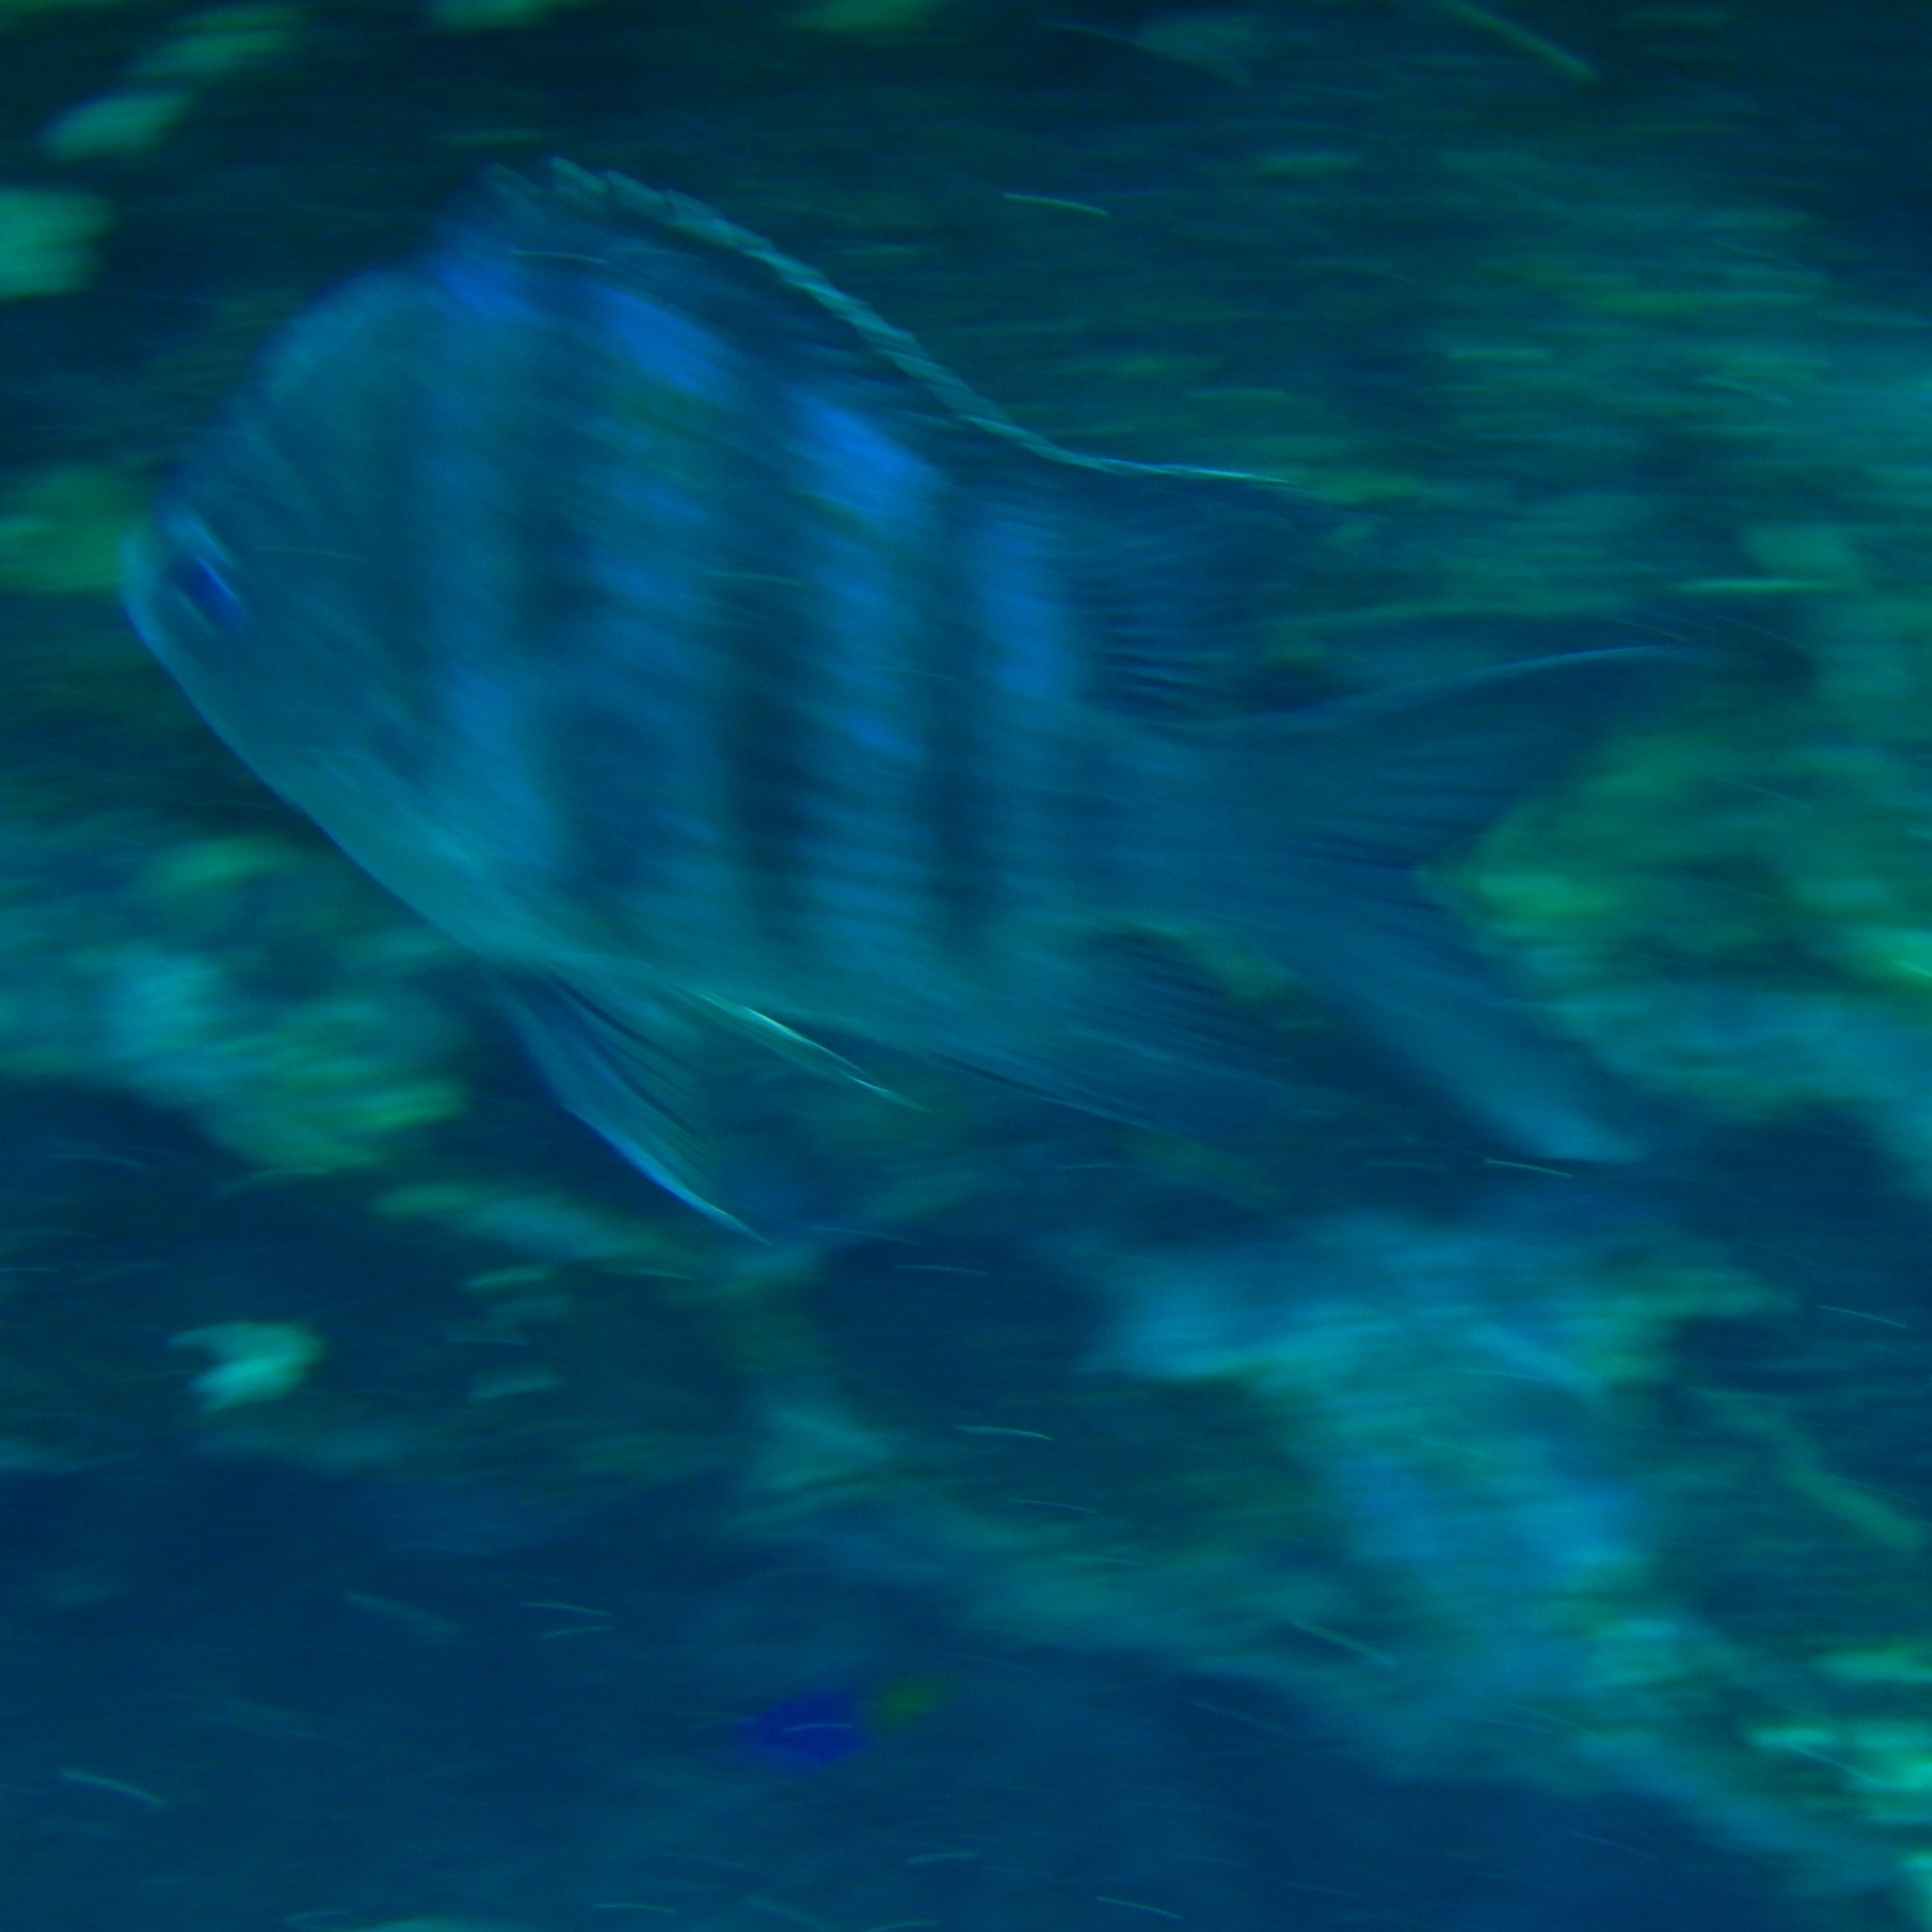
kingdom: Animalia
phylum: Chordata
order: Perciformes
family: Pomacentridae
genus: Abudefduf
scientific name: Abudefduf saxatilis
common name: Sergeant major
